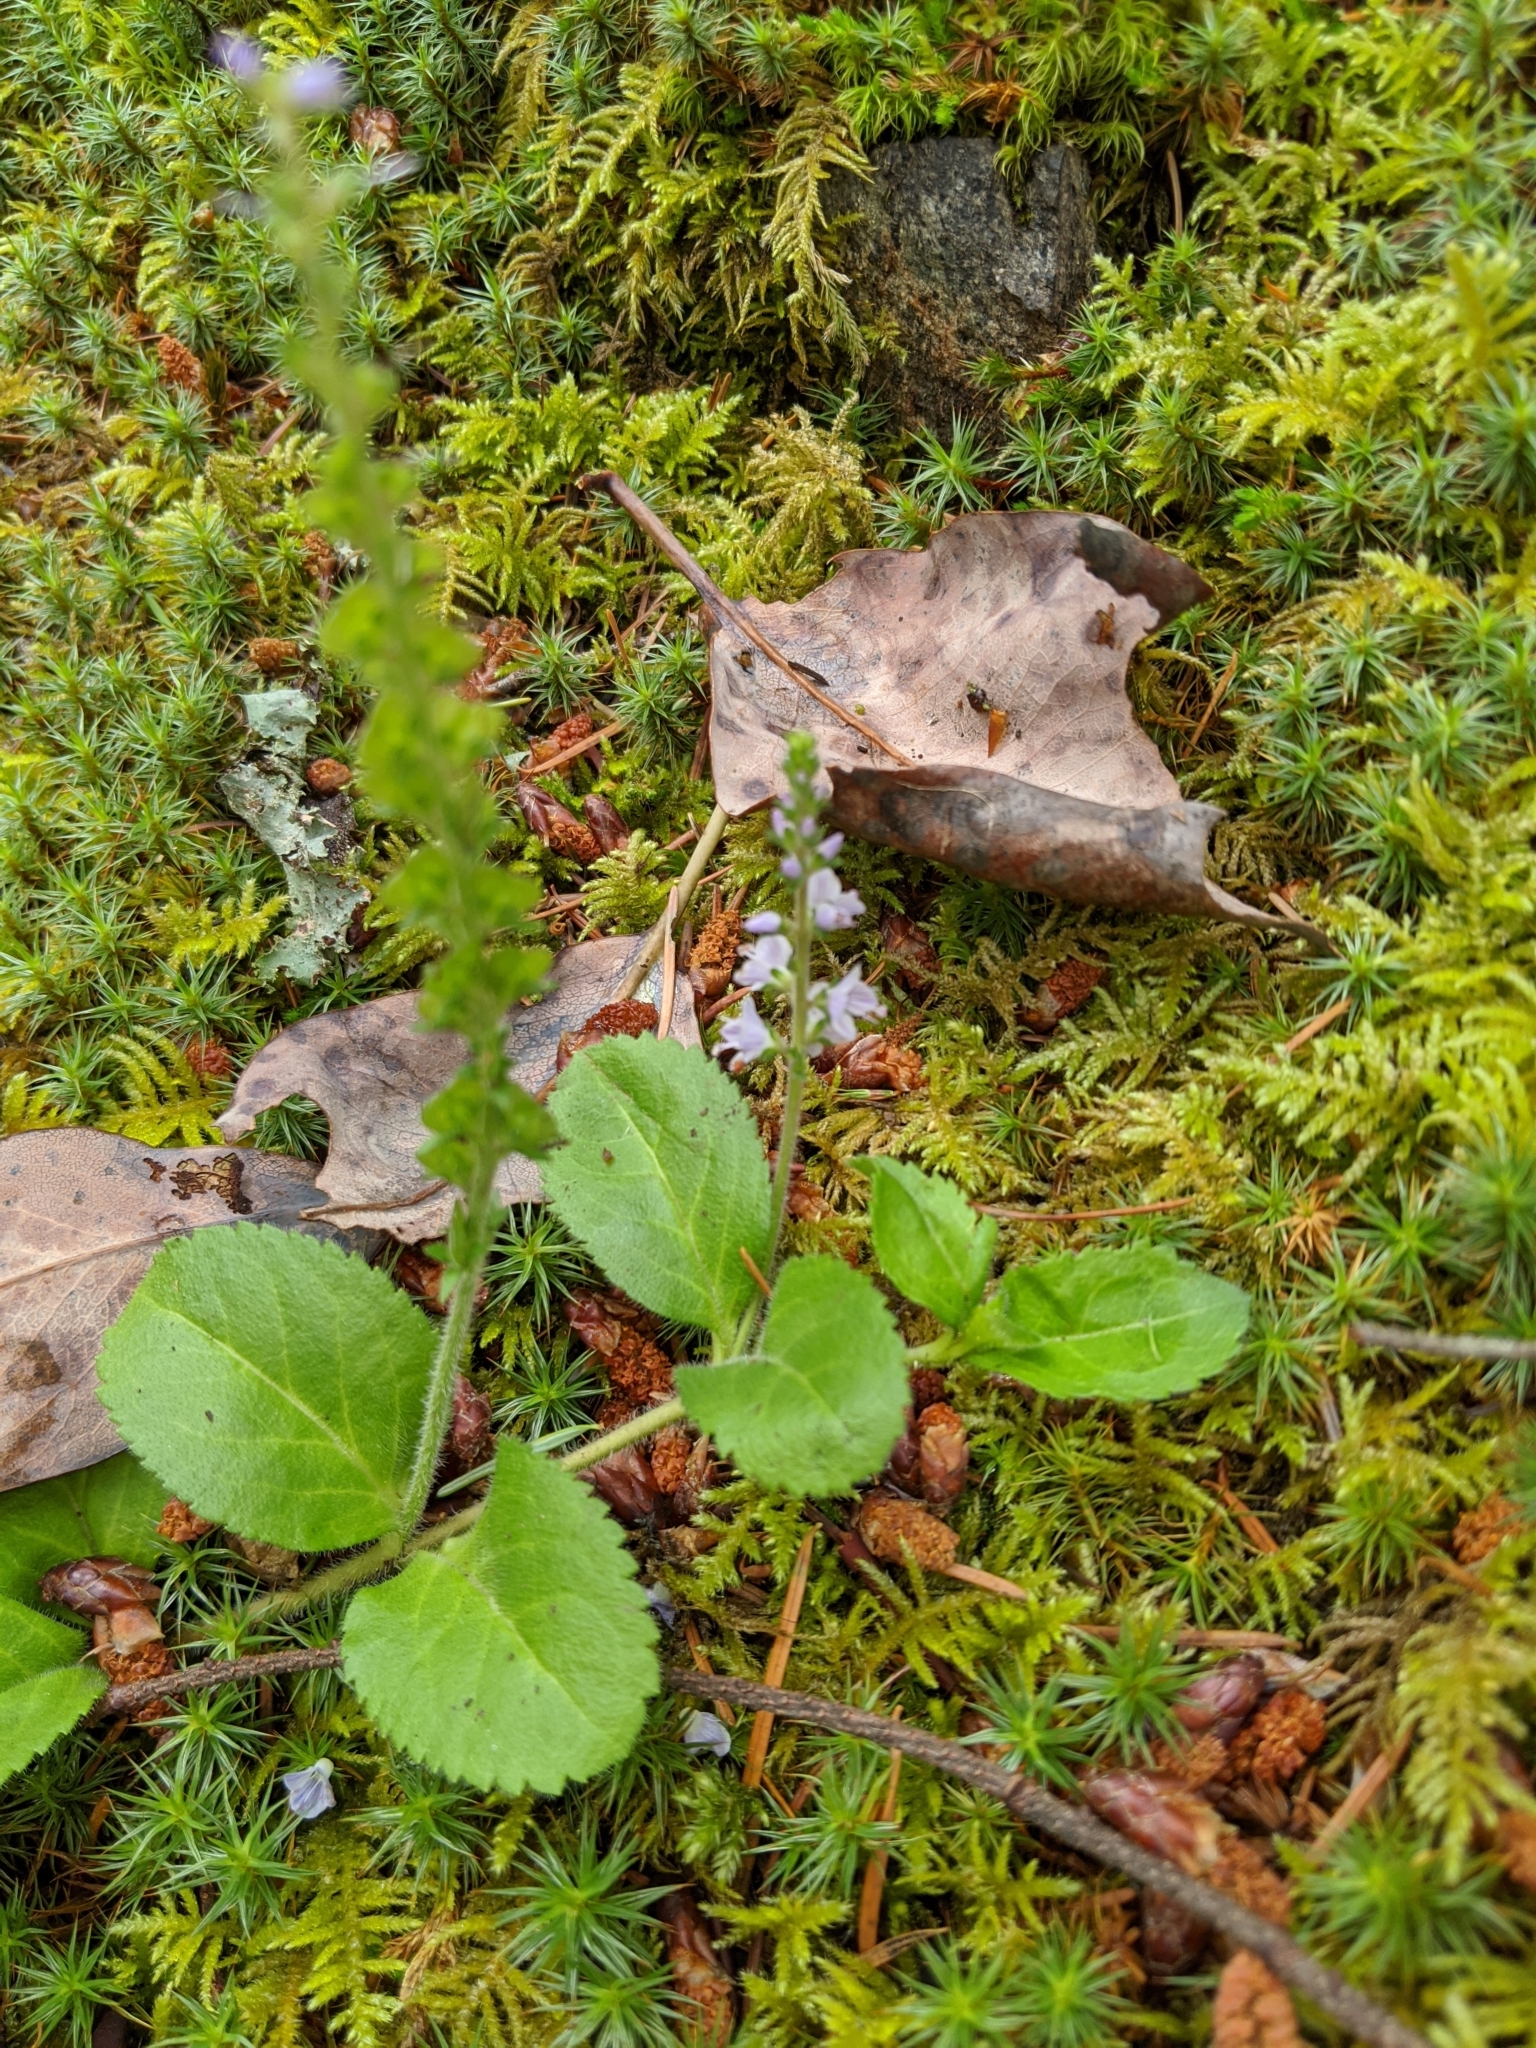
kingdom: Plantae
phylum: Tracheophyta
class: Magnoliopsida
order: Lamiales
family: Plantaginaceae
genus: Veronica
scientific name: Veronica officinalis
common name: Common speedwell
